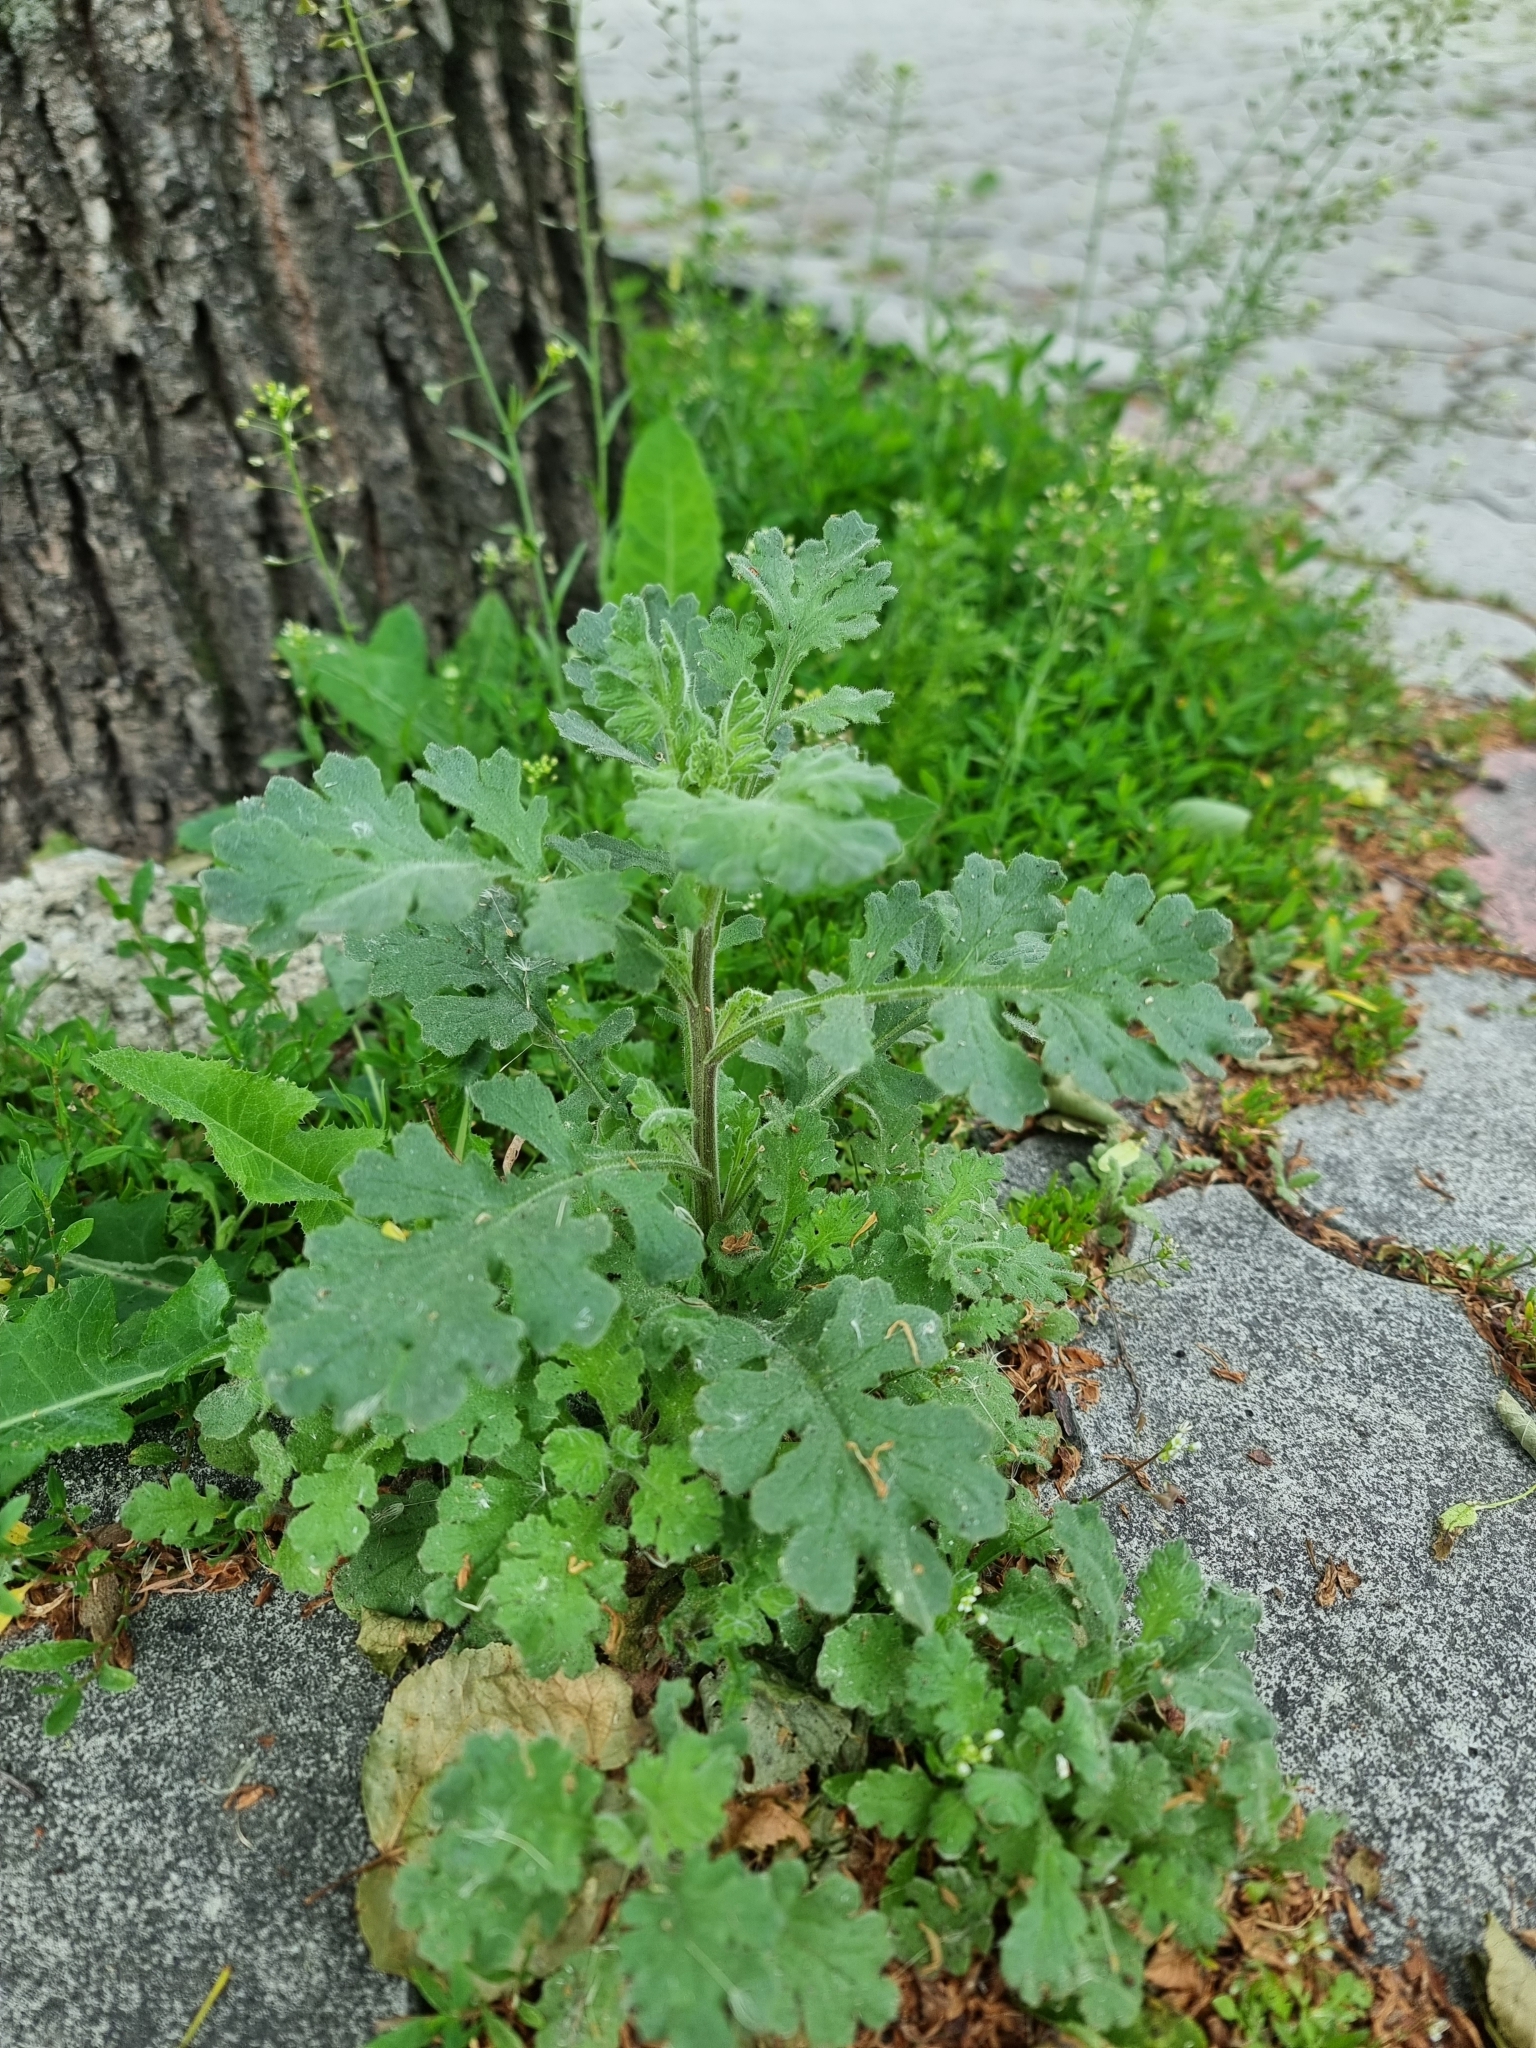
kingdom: Plantae
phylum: Tracheophyta
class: Magnoliopsida
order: Asterales
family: Asteraceae
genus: Senecio
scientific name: Senecio viscosus
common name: Sticky groundsel
